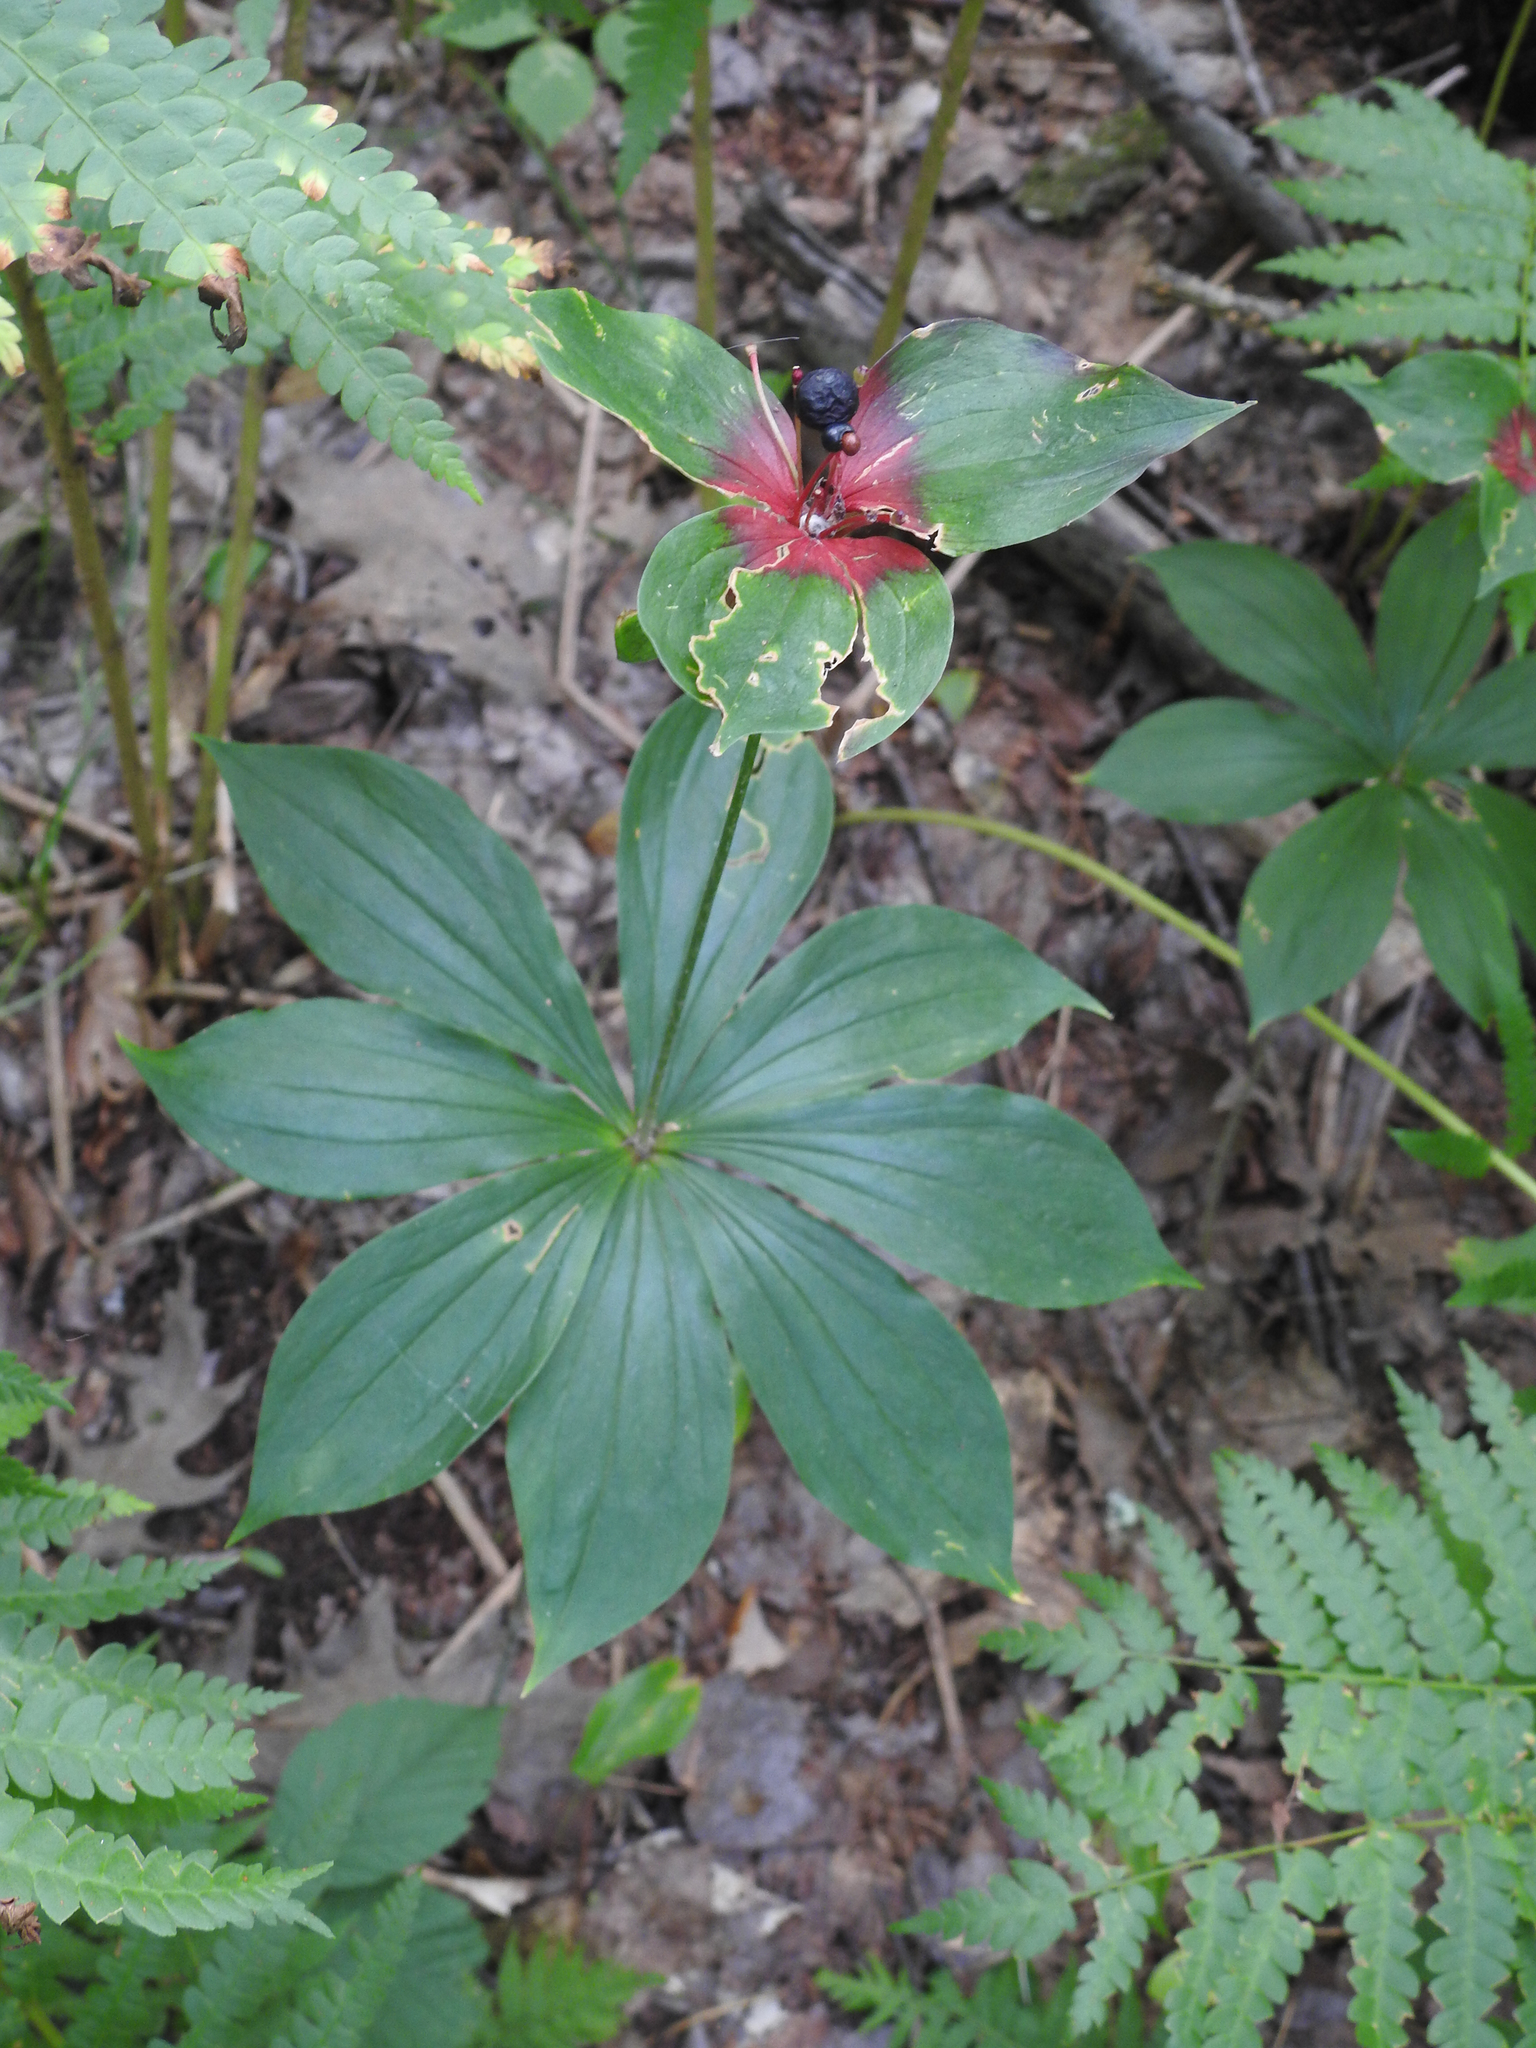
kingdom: Plantae
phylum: Tracheophyta
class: Liliopsida
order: Liliales
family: Liliaceae
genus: Medeola
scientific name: Medeola virginiana
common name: Indian cucumber-root
